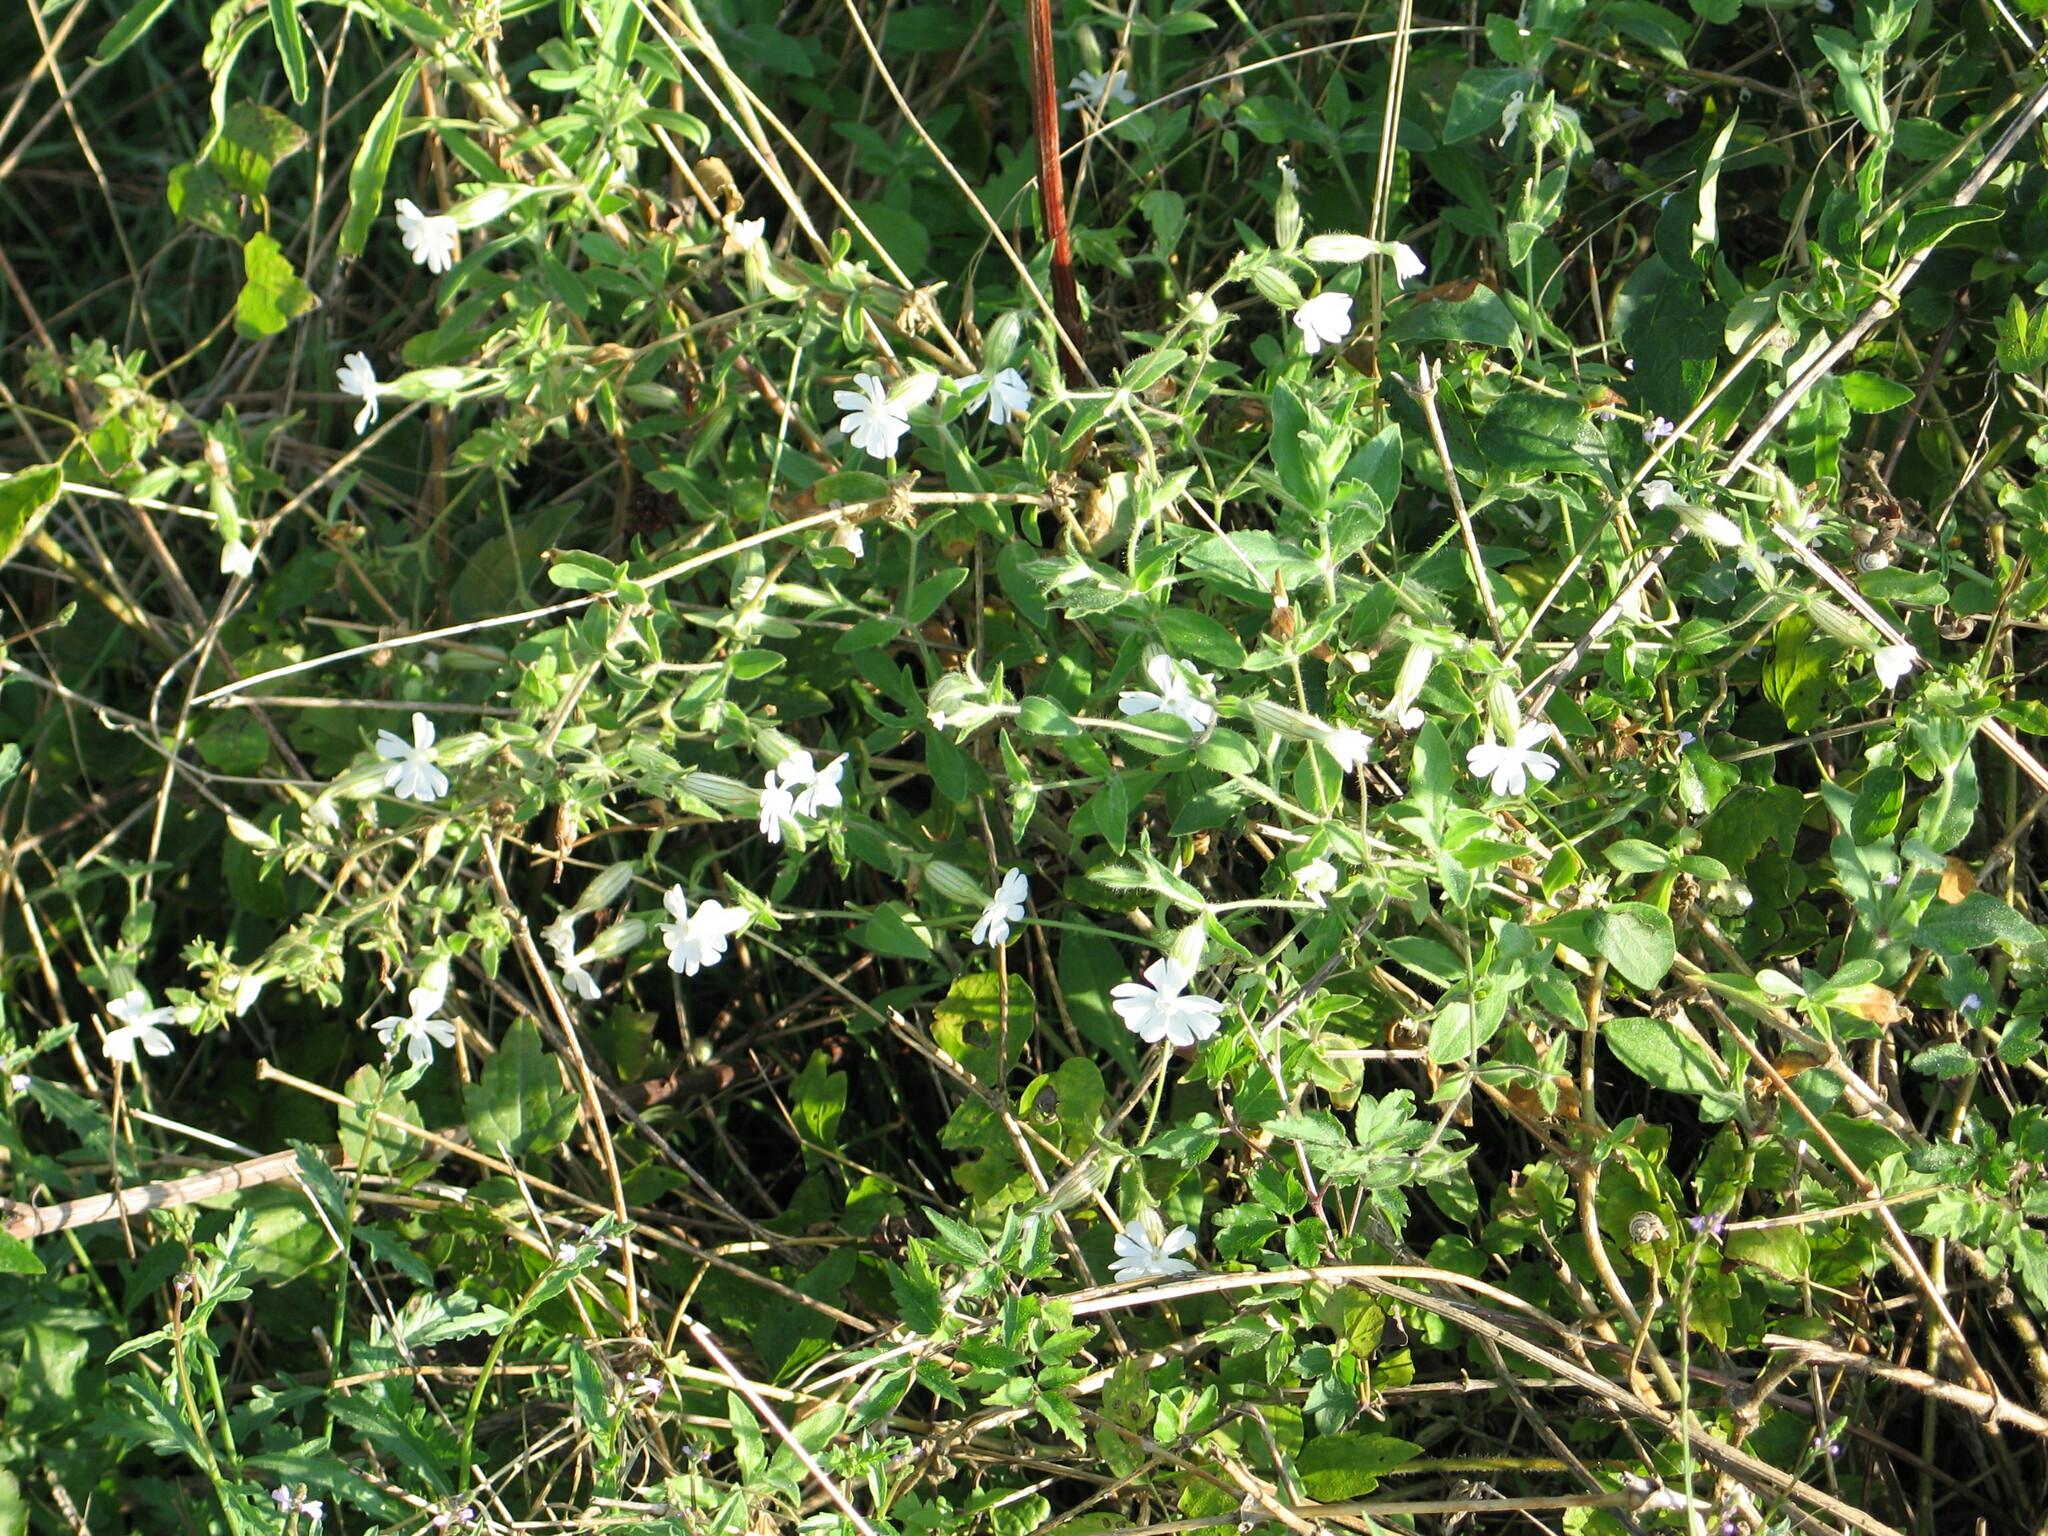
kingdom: Plantae
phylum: Tracheophyta
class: Magnoliopsida
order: Caryophyllales
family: Caryophyllaceae
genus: Silene
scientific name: Silene latifolia
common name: White campion
